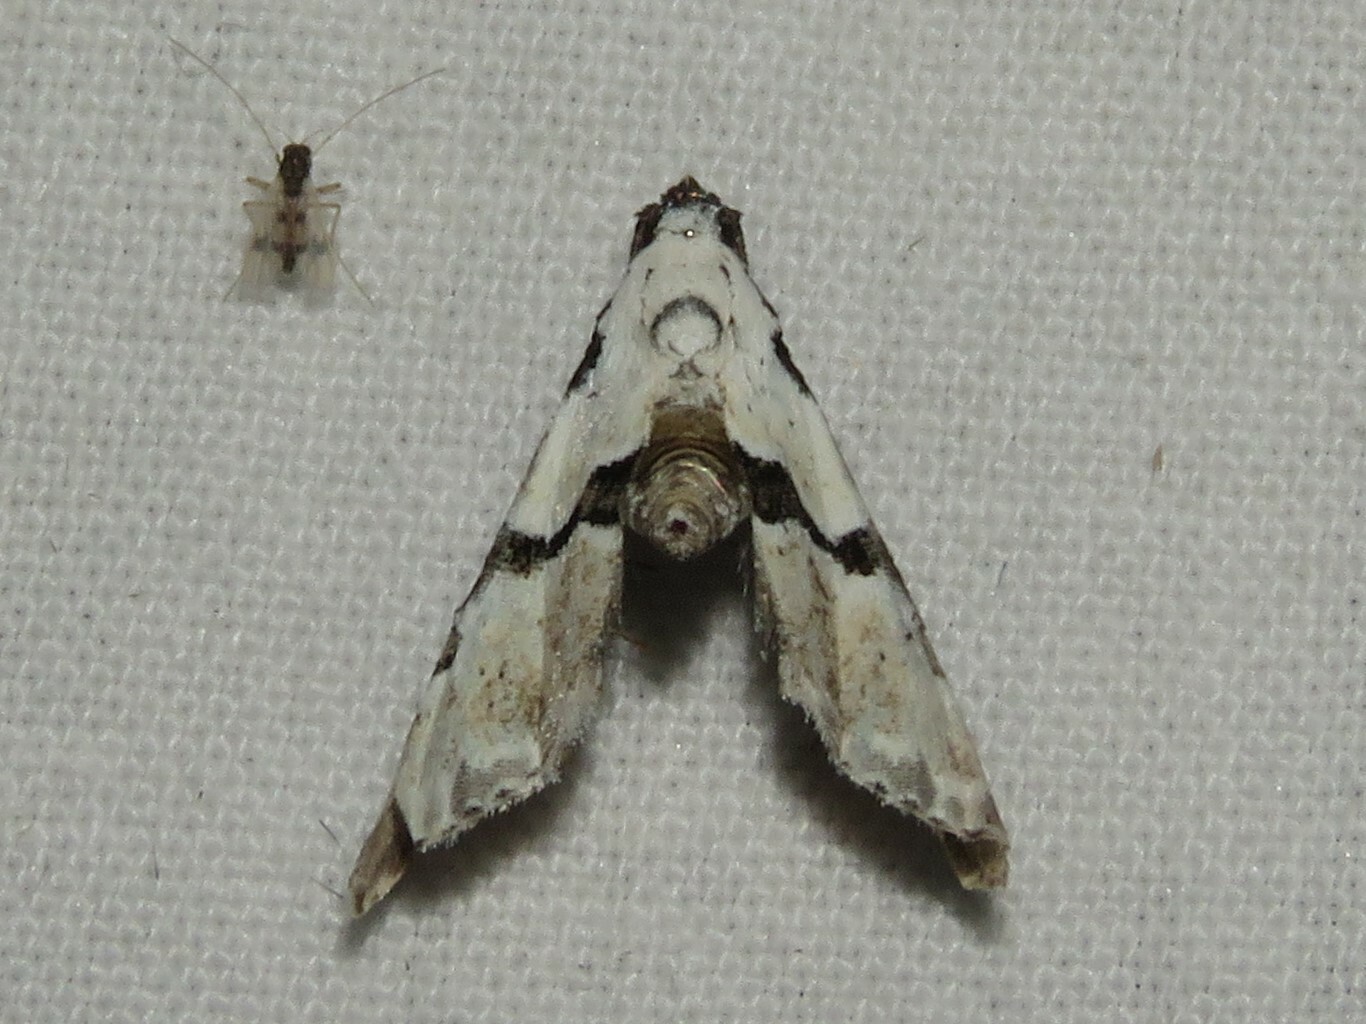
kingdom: Animalia
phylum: Arthropoda
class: Insecta
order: Lepidoptera
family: Noctuidae
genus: Nigetia
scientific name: Nigetia formosalis
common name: Thin-winged owlet
